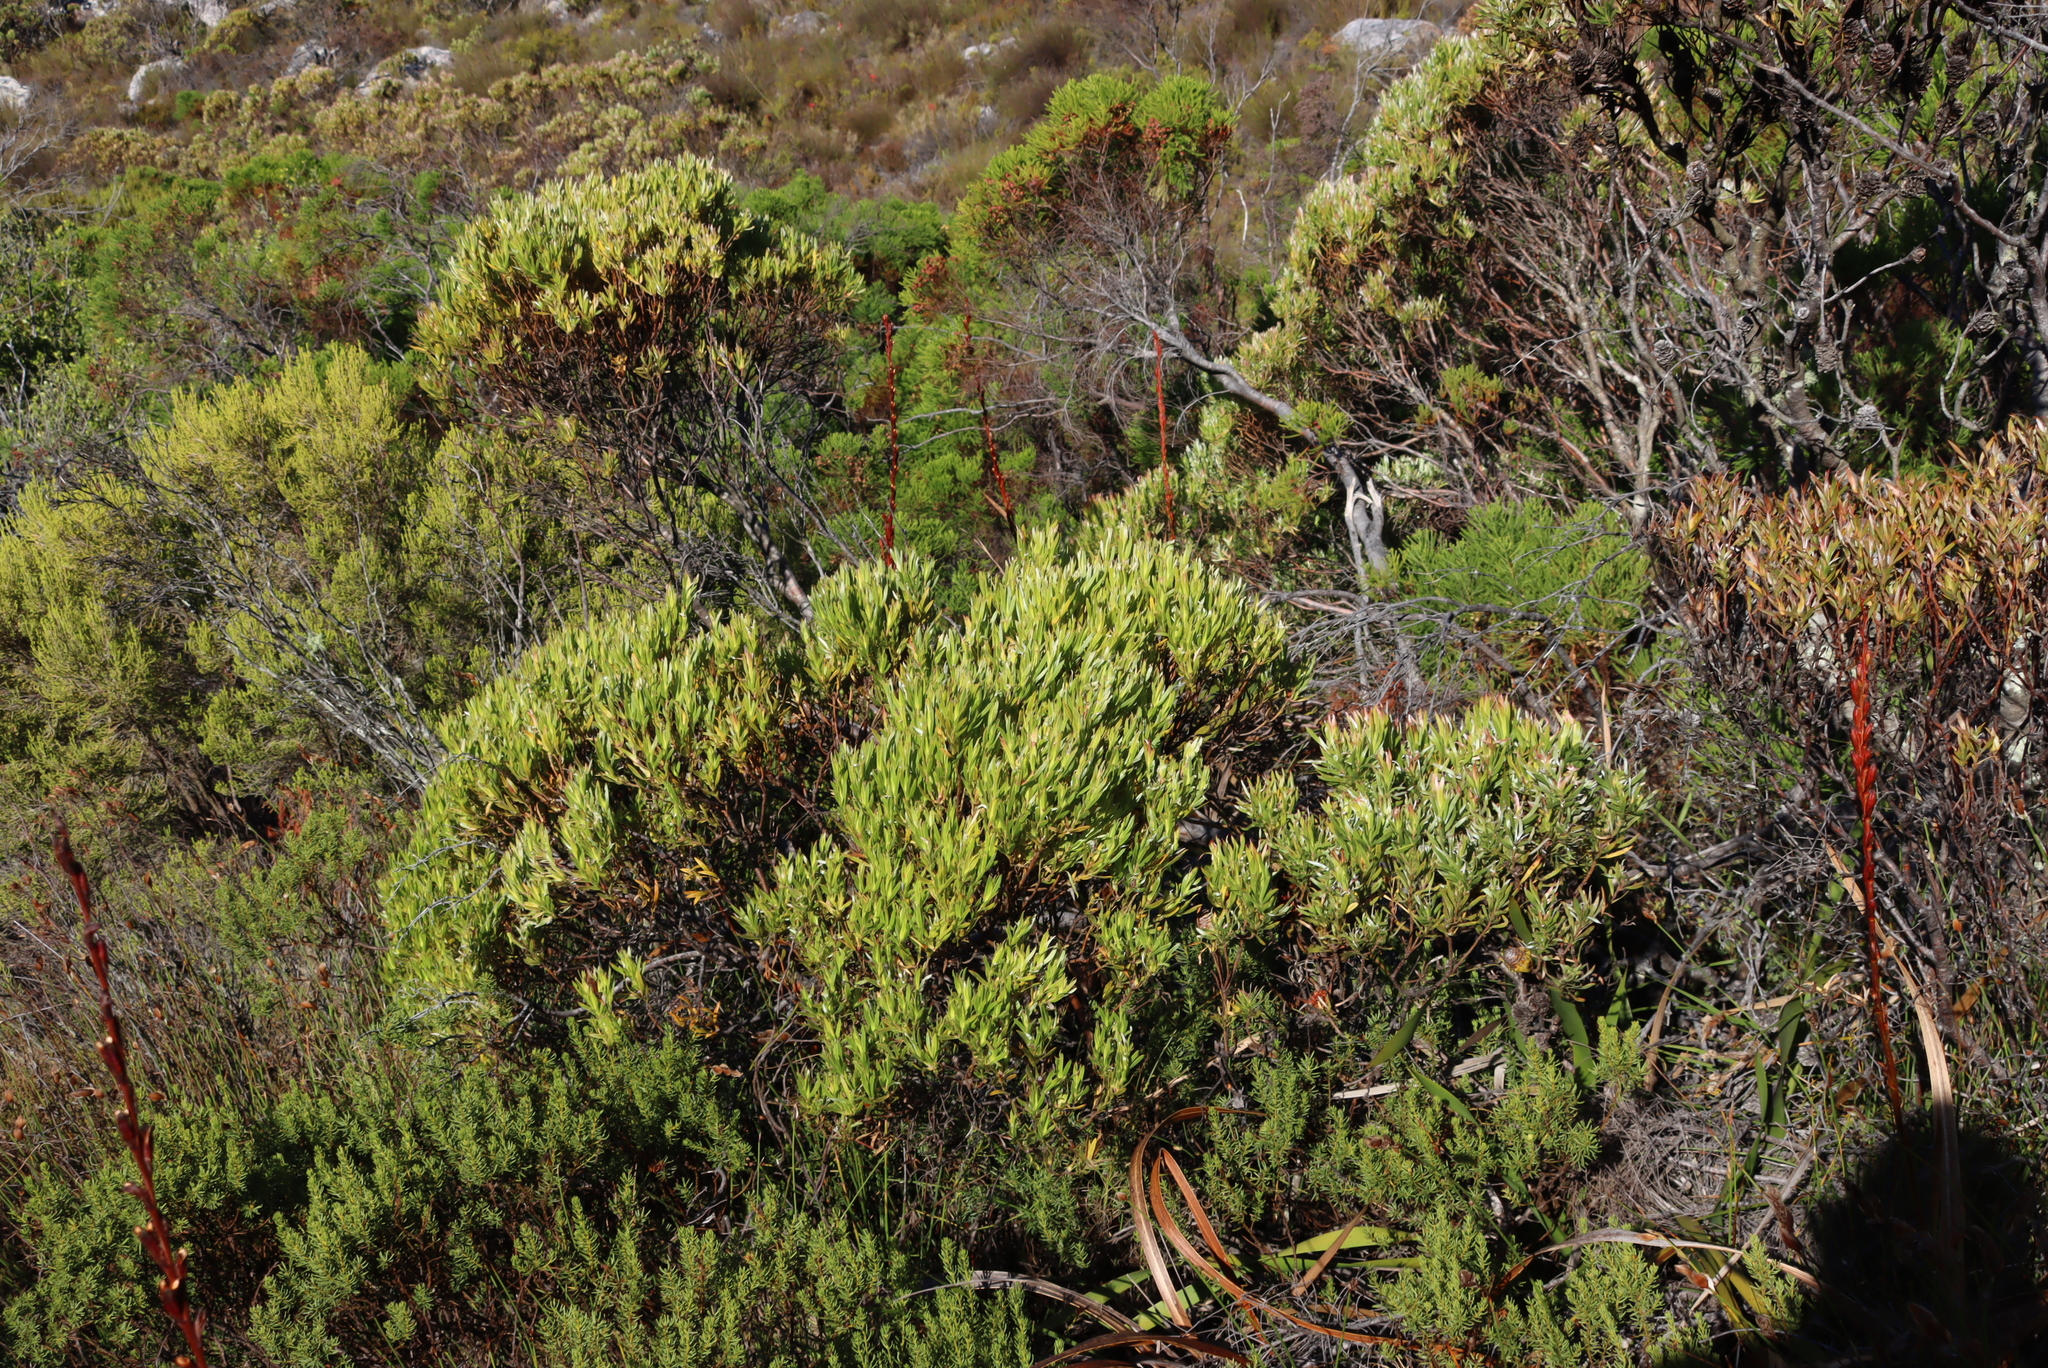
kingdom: Plantae
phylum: Tracheophyta
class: Magnoliopsida
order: Proteales
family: Proteaceae
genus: Leucadendron
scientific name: Leucadendron xanthoconus
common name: Sickle-leaf conebush
